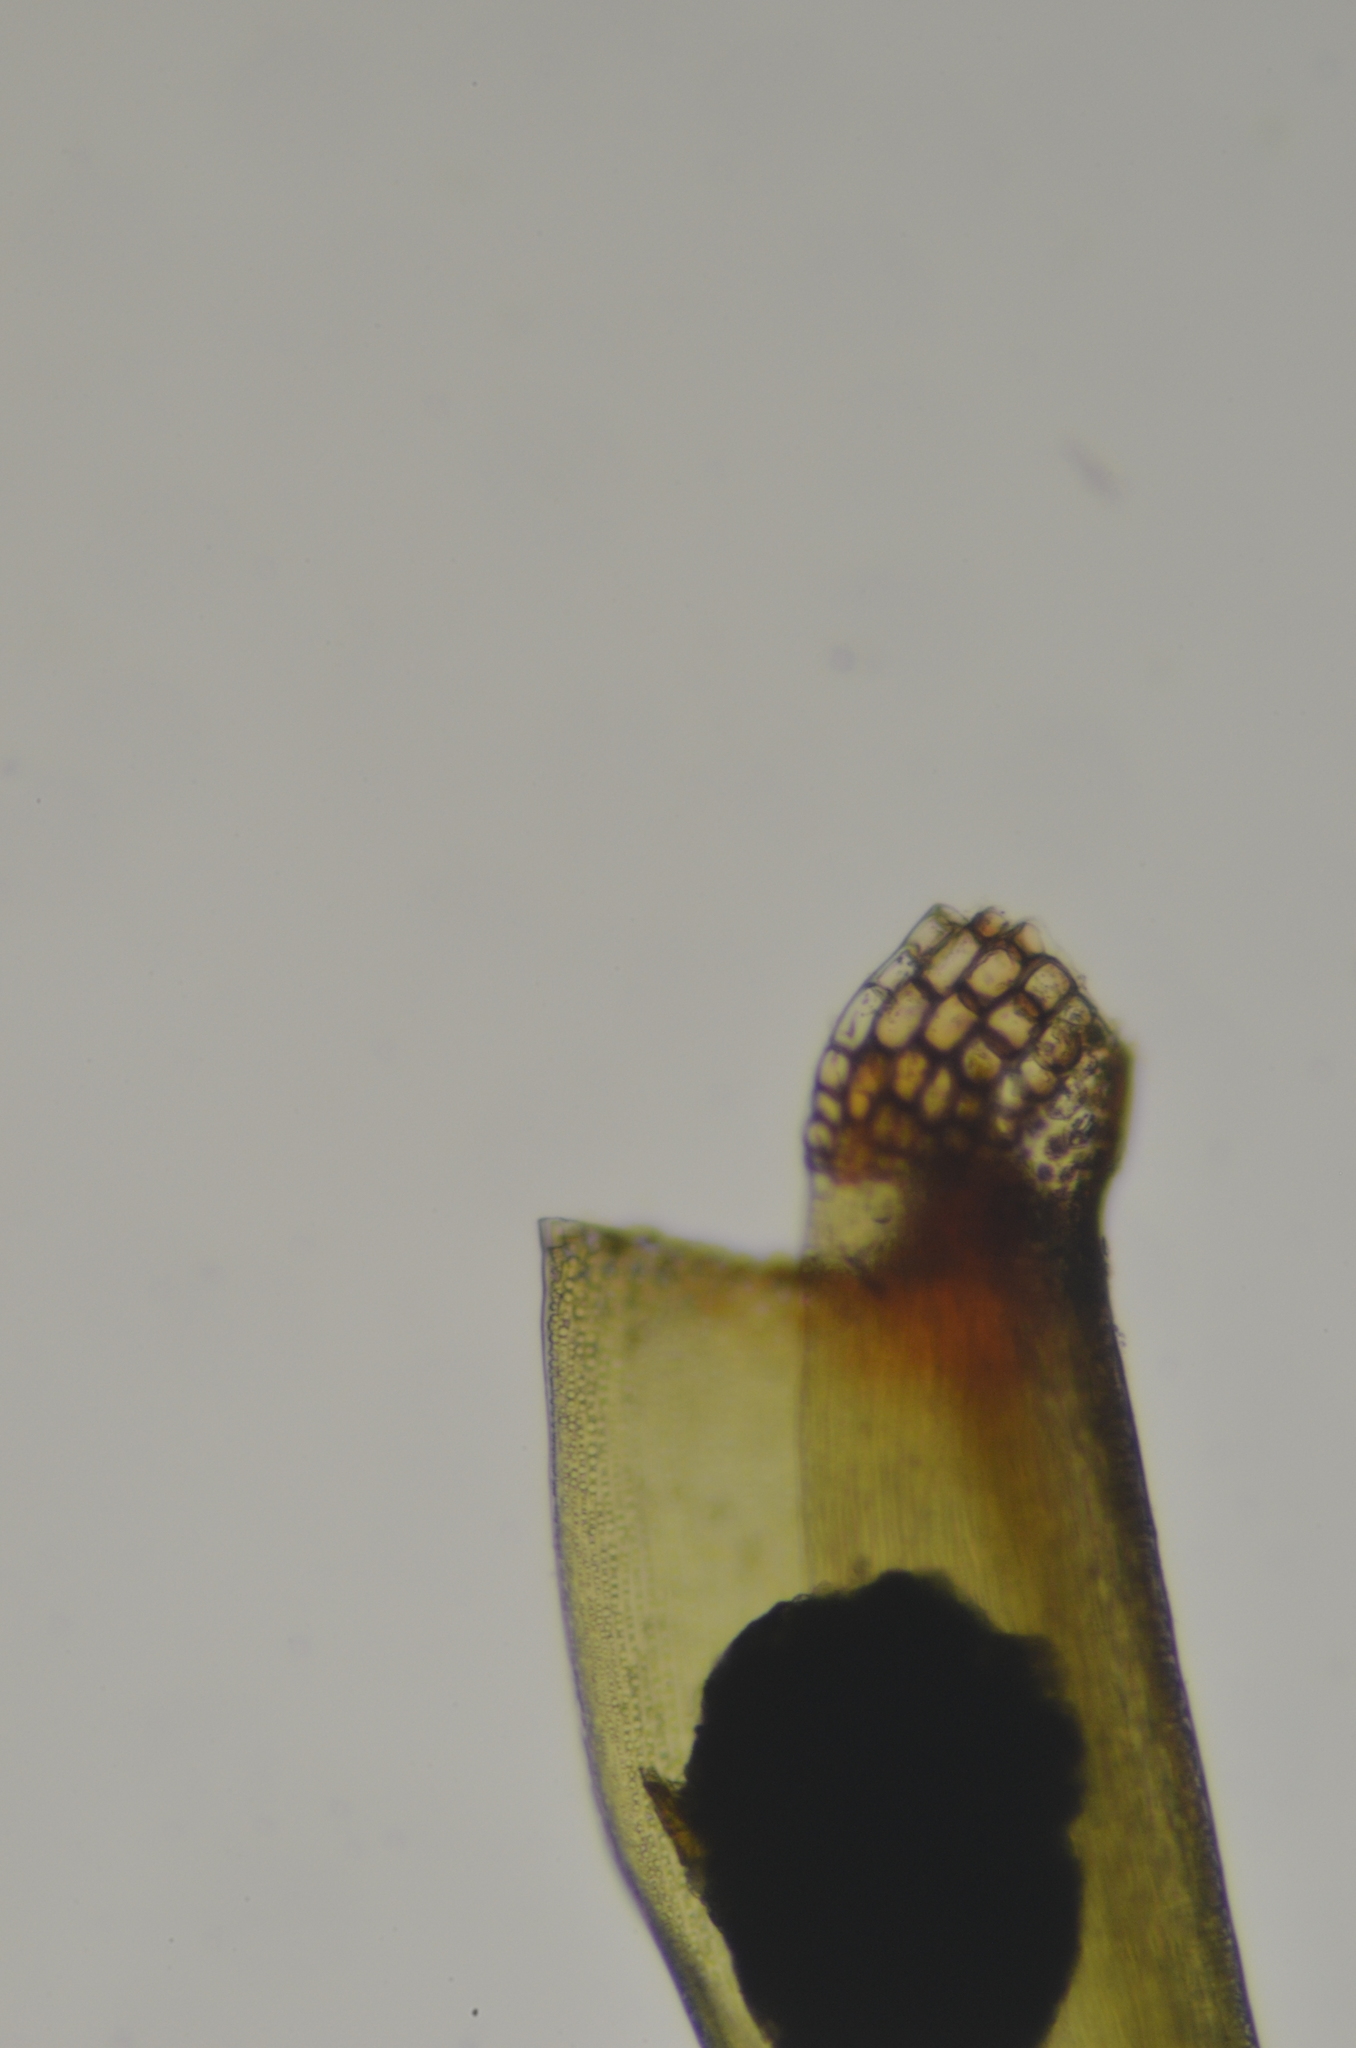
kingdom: Plantae
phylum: Bryophyta
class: Bryopsida
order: Grimmiales
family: Seligeriaceae
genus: Blindia
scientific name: Blindia acuta
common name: Sharp-leaved blind's moss
